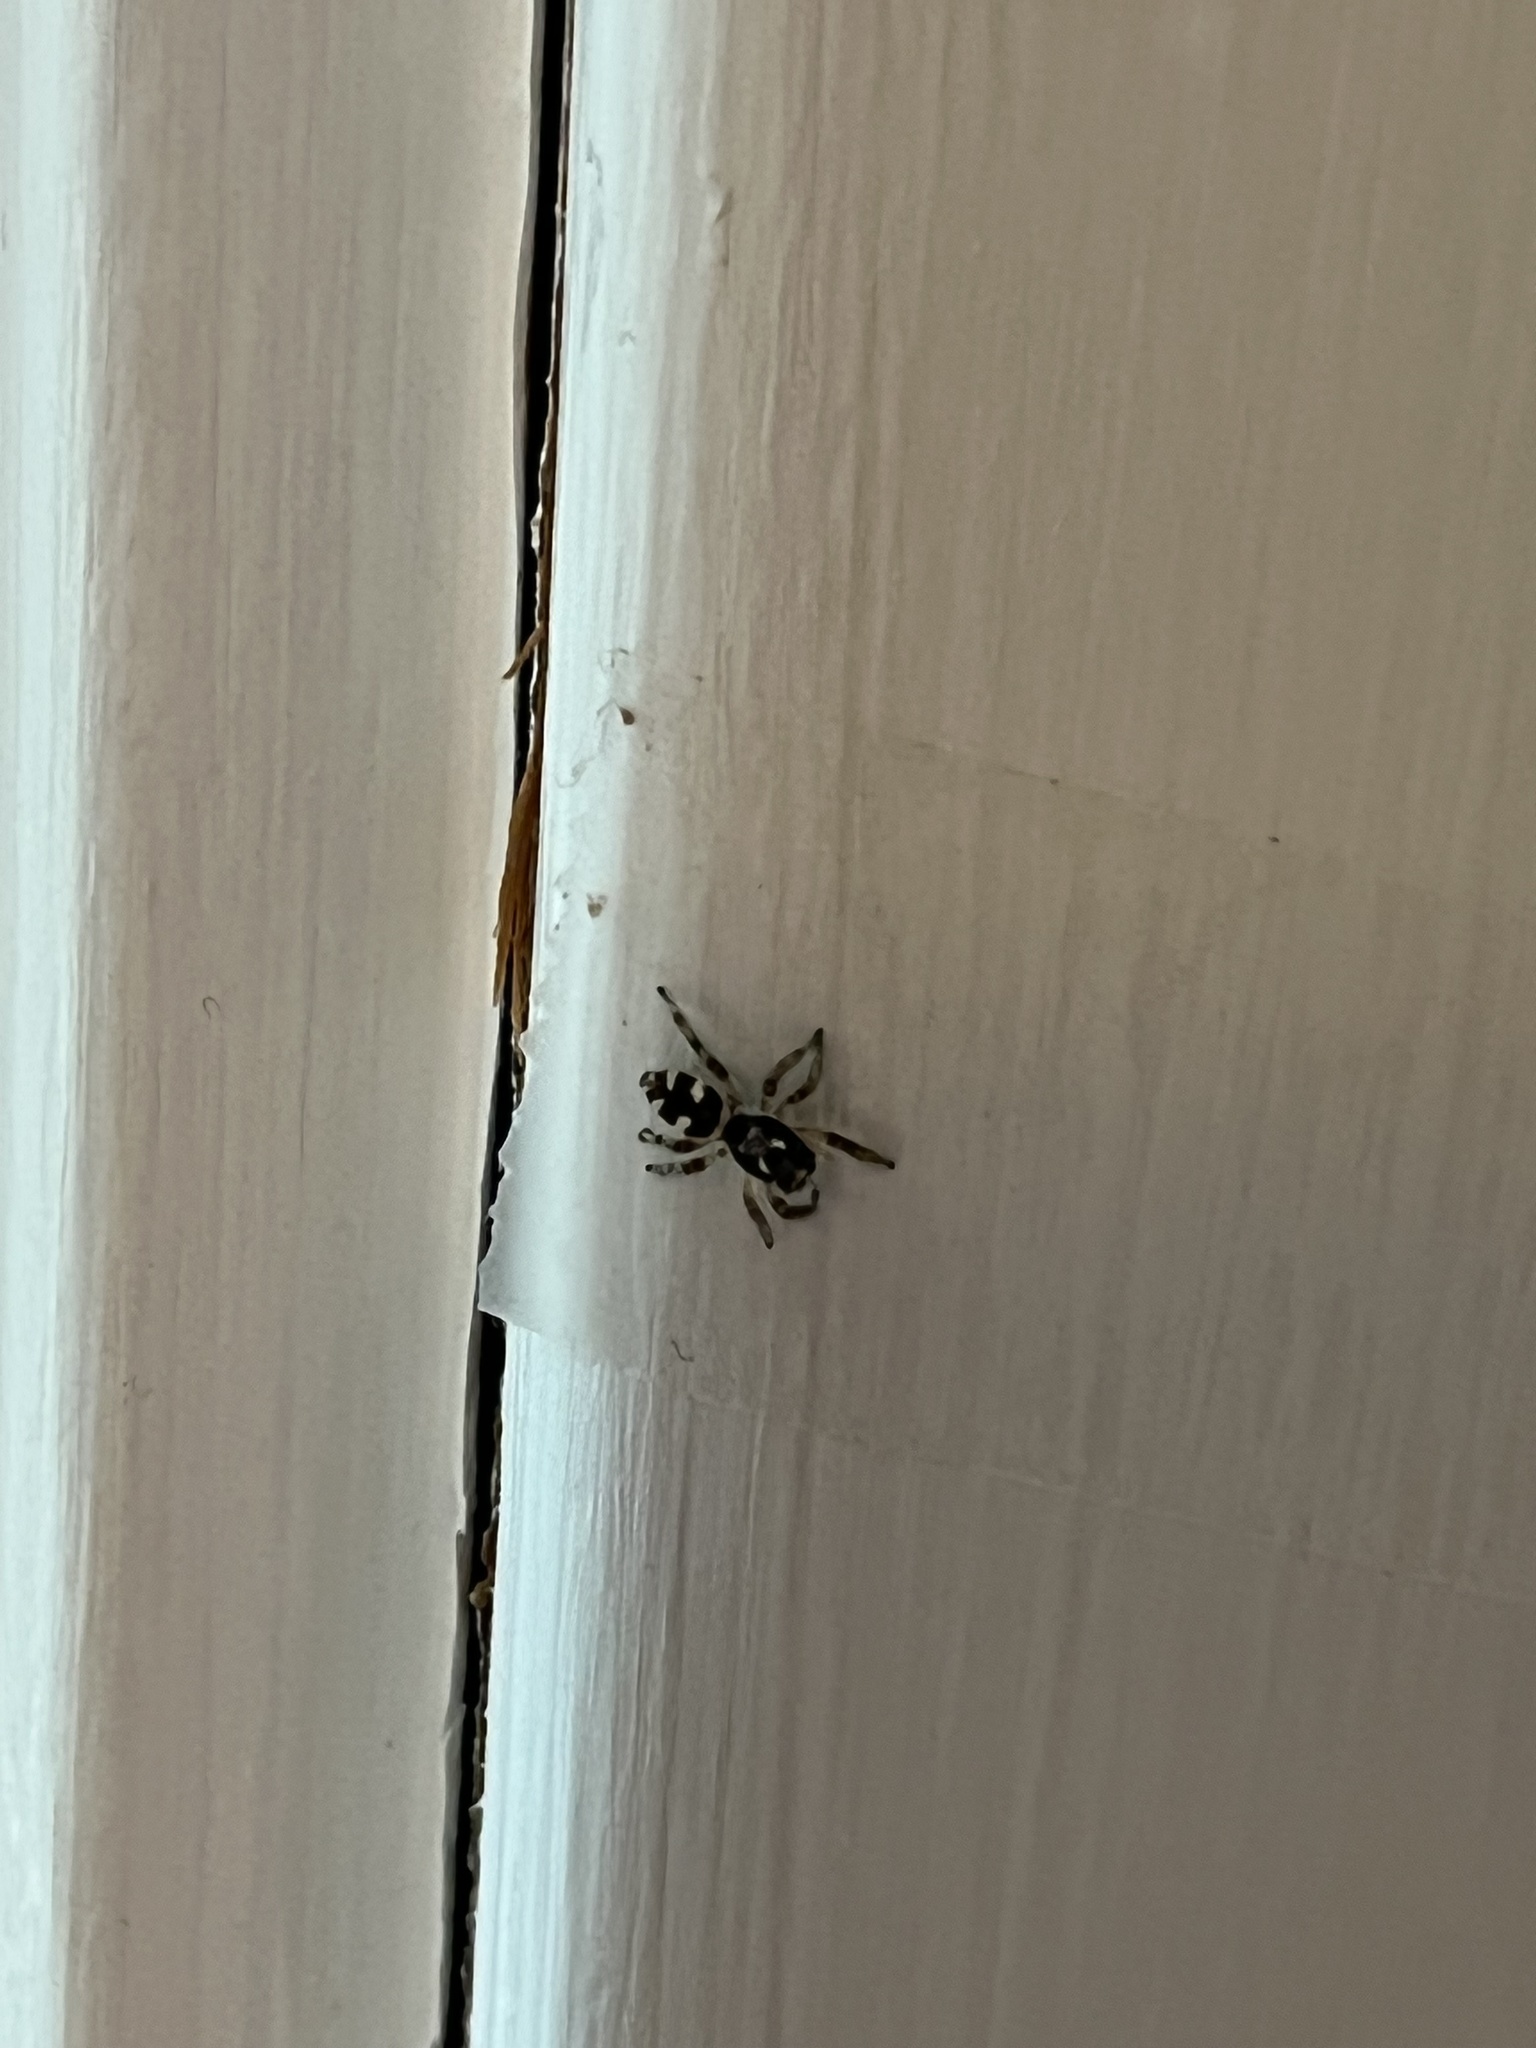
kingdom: Animalia
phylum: Arthropoda
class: Arachnida
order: Araneae
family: Salticidae
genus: Salticus
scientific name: Salticus scenicus
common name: Zebra jumper
